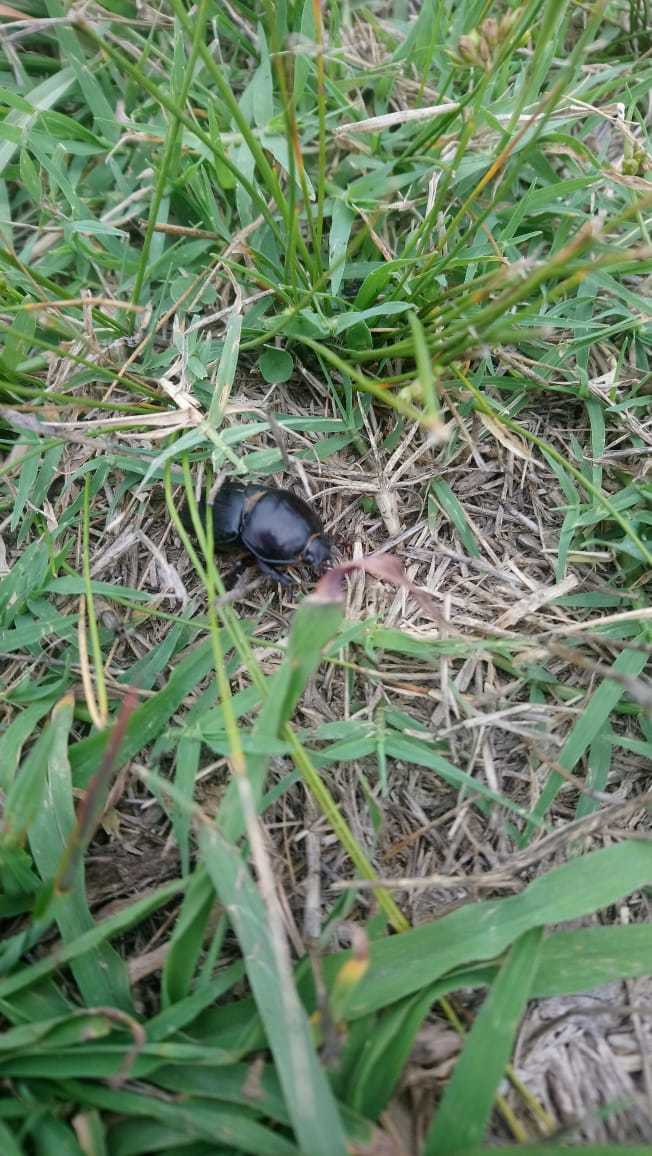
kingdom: Animalia
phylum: Arthropoda
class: Insecta
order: Coleoptera
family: Scarabaeidae
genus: Diloboderus
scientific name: Diloboderus abderus
